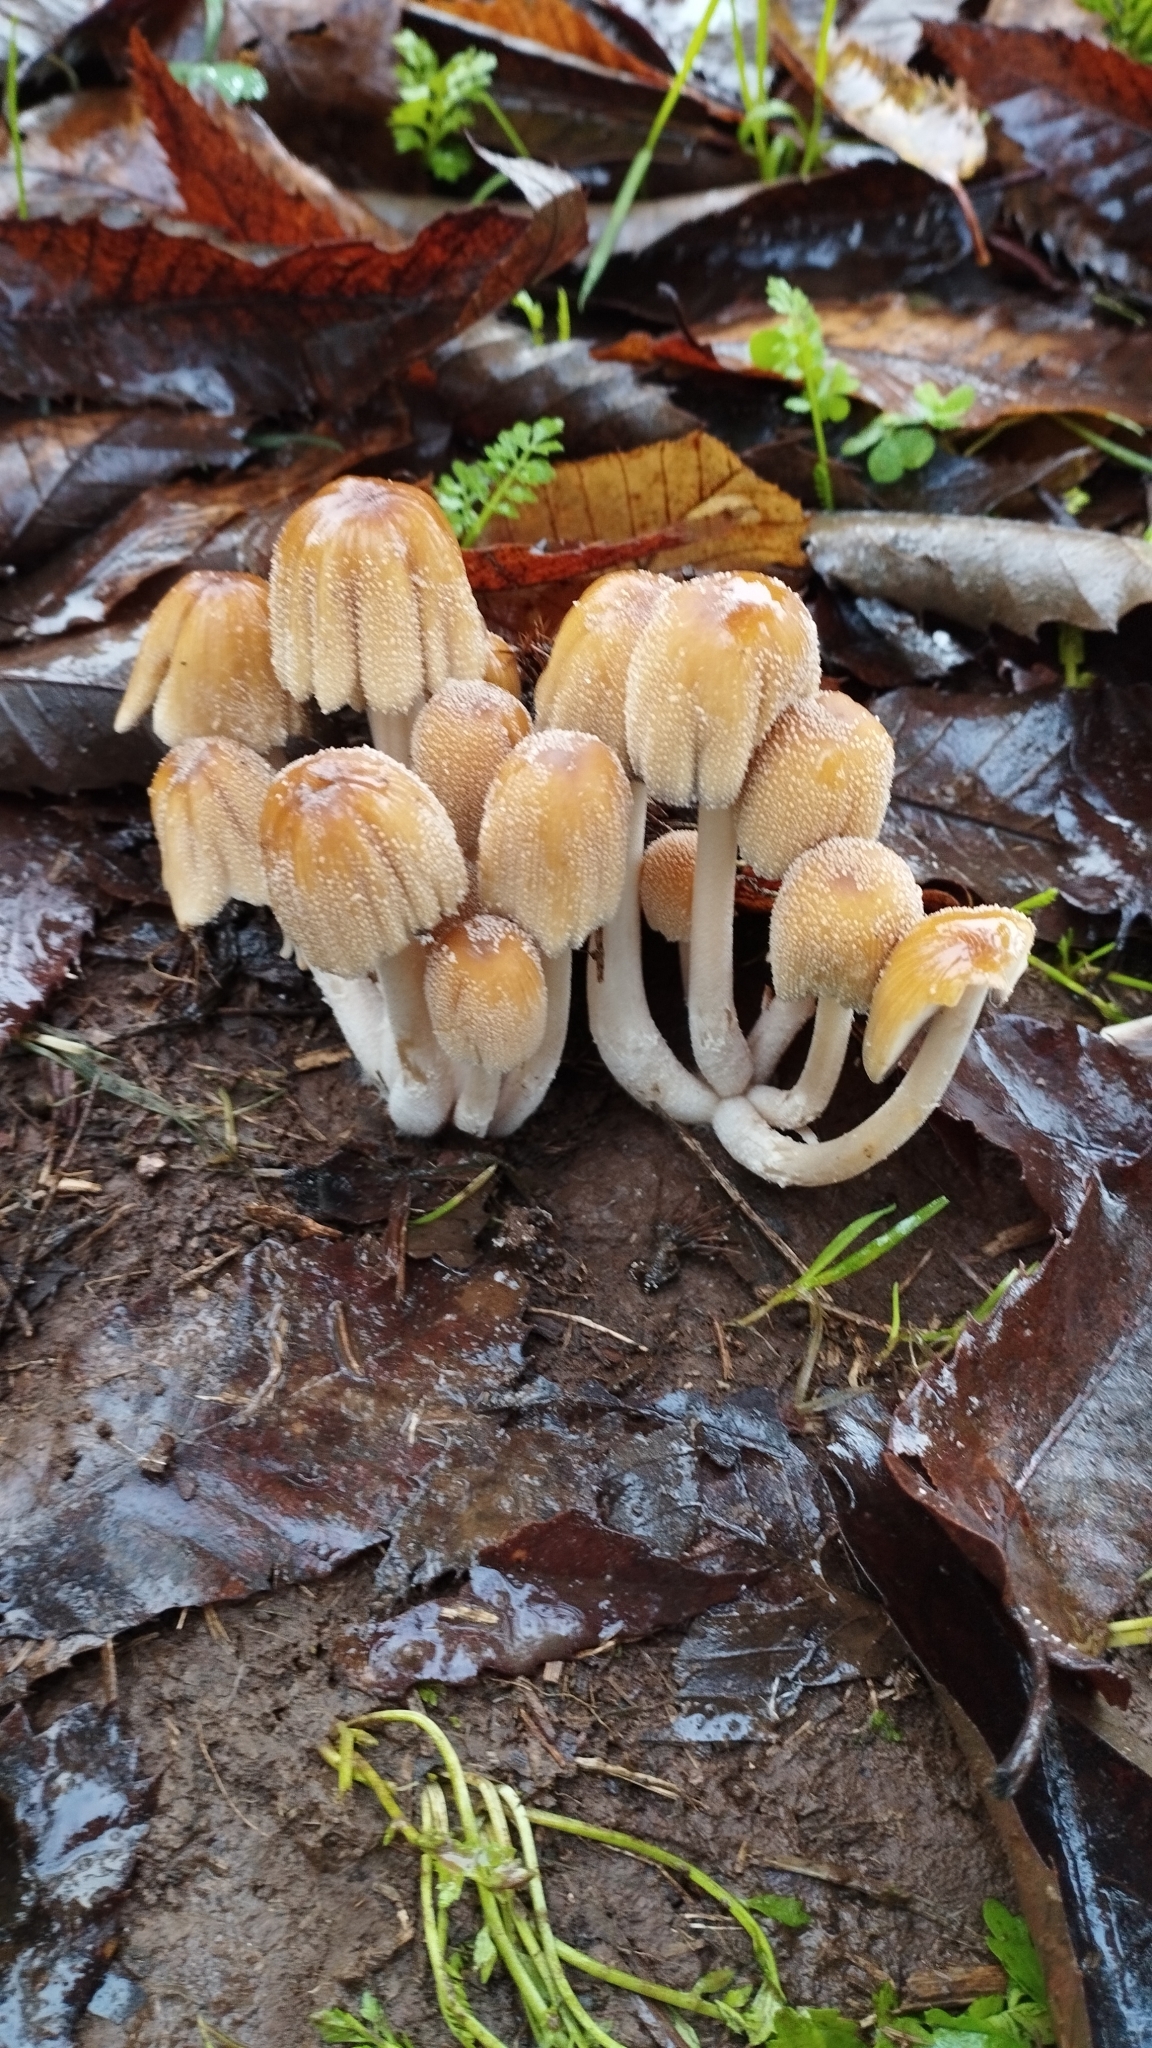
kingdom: Fungi
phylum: Basidiomycota
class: Agaricomycetes
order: Agaricales
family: Psathyrellaceae
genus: Coprinellus
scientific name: Coprinellus micaceus
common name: Glistening ink-cap
